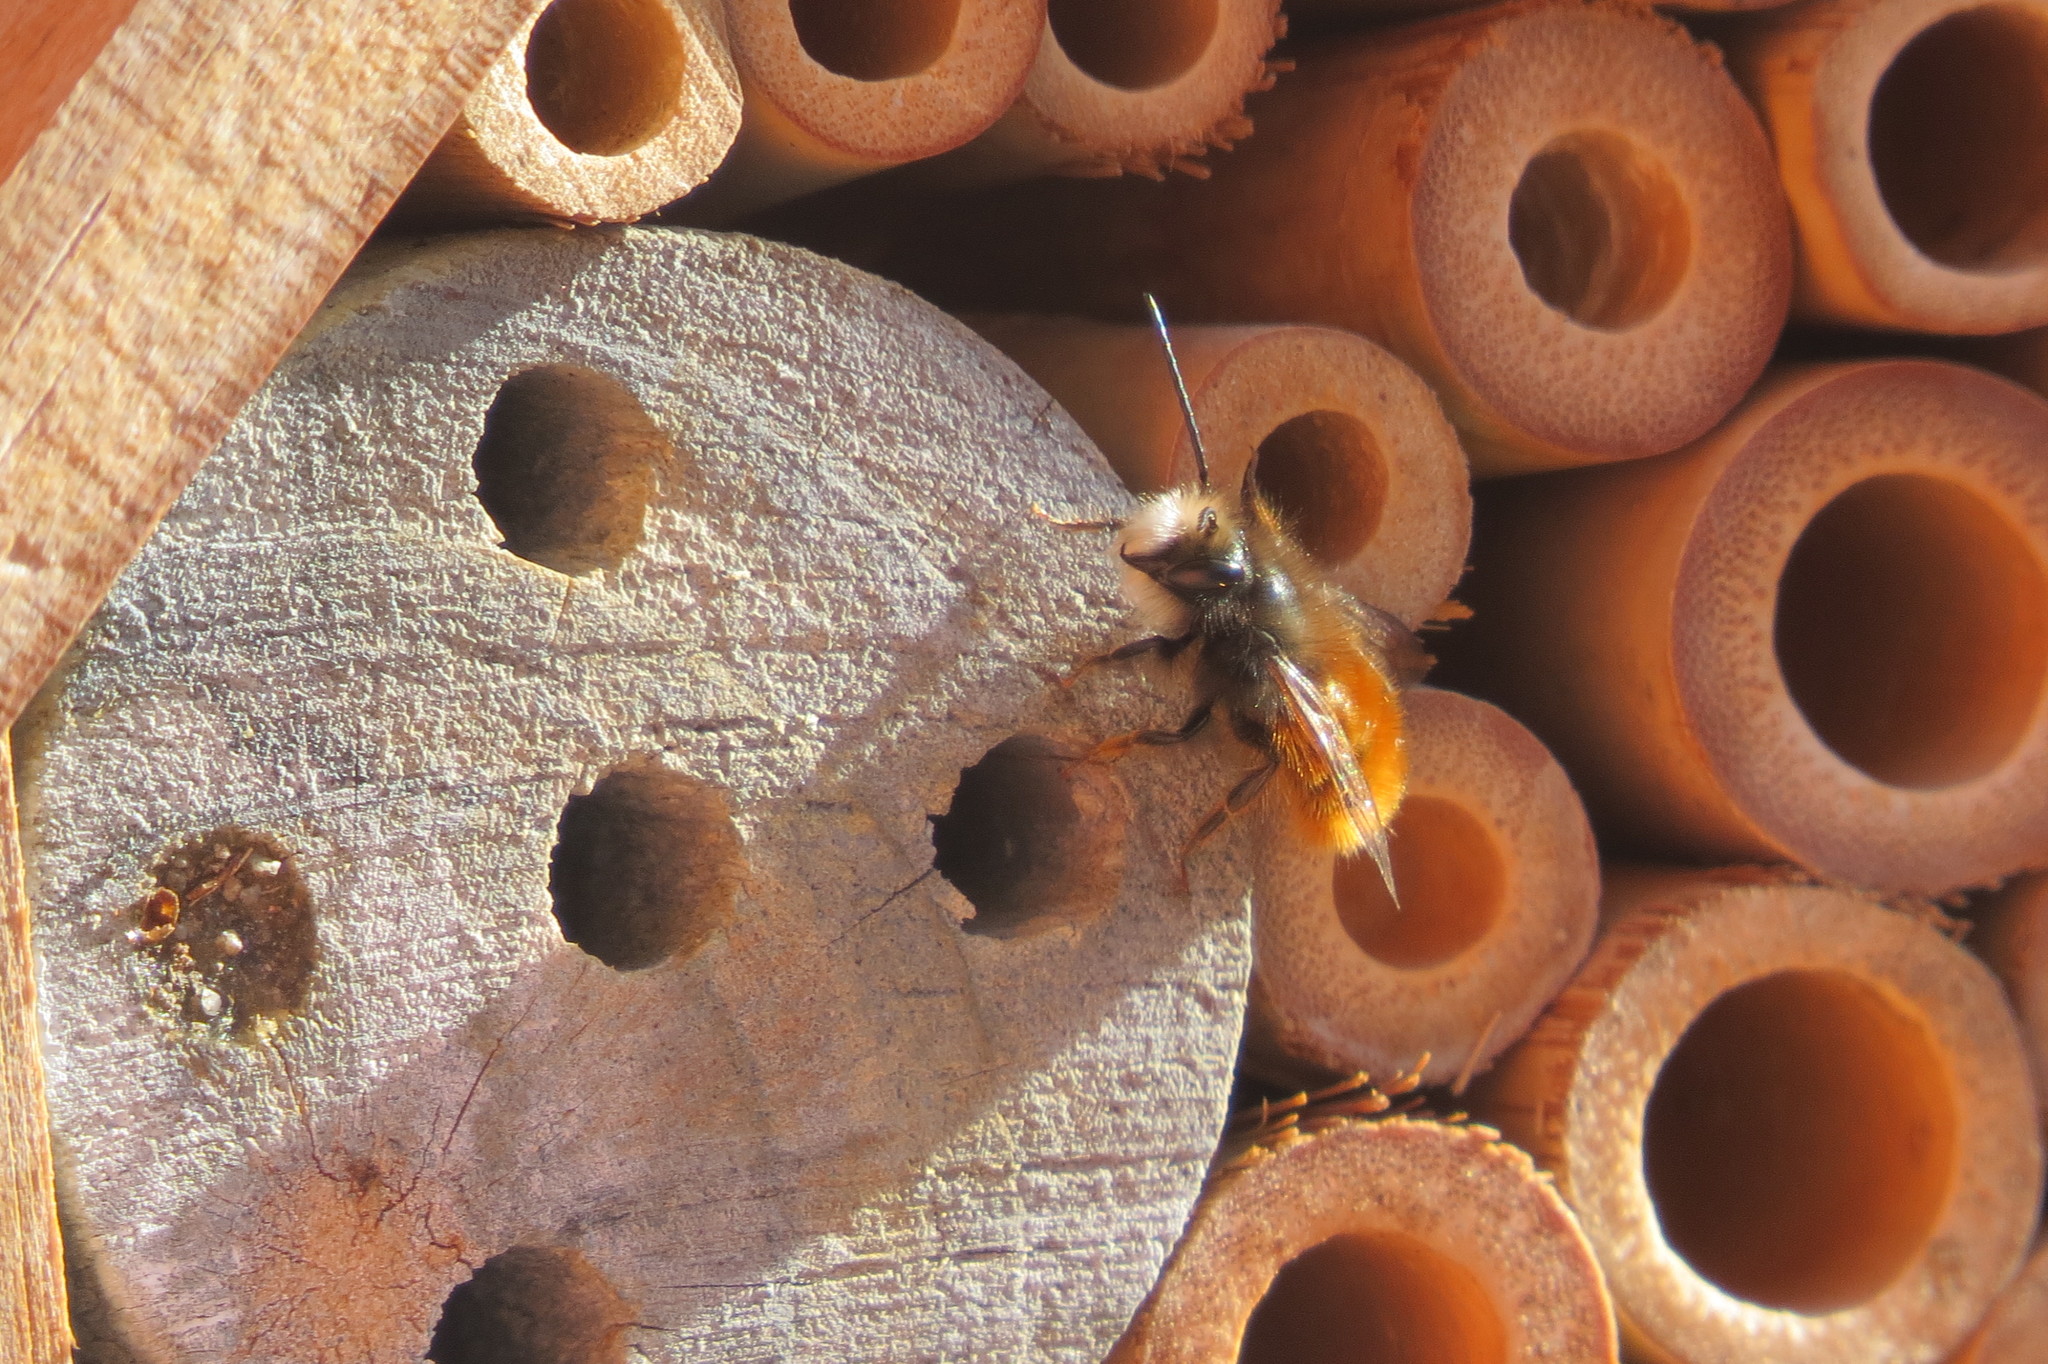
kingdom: Animalia
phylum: Arthropoda
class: Insecta
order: Hymenoptera
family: Megachilidae
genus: Osmia
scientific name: Osmia cornuta
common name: Mason bee
